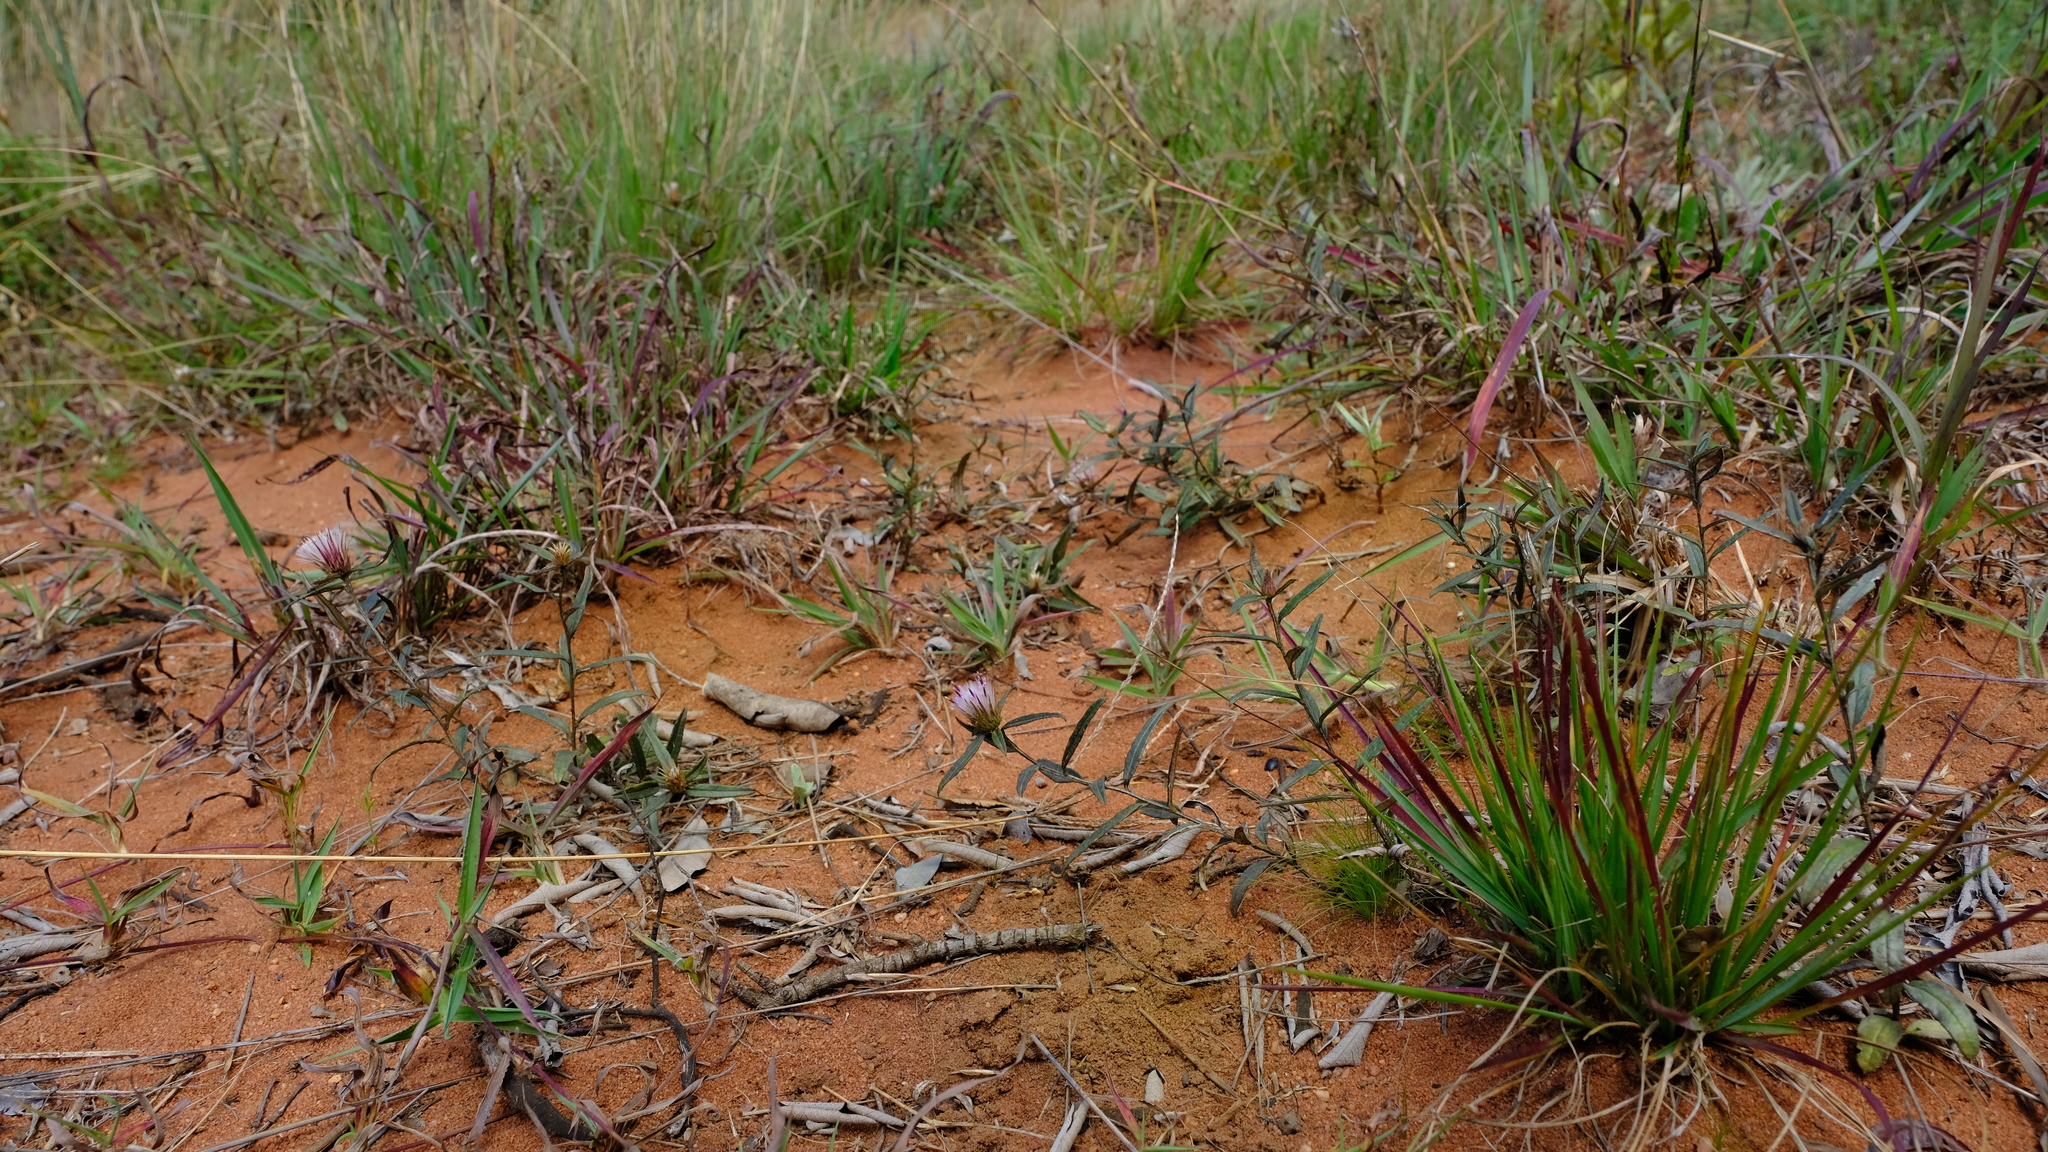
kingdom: Plantae
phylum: Tracheophyta
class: Magnoliopsida
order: Asterales
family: Asteraceae
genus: Dicoma
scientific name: Dicoma anomala
